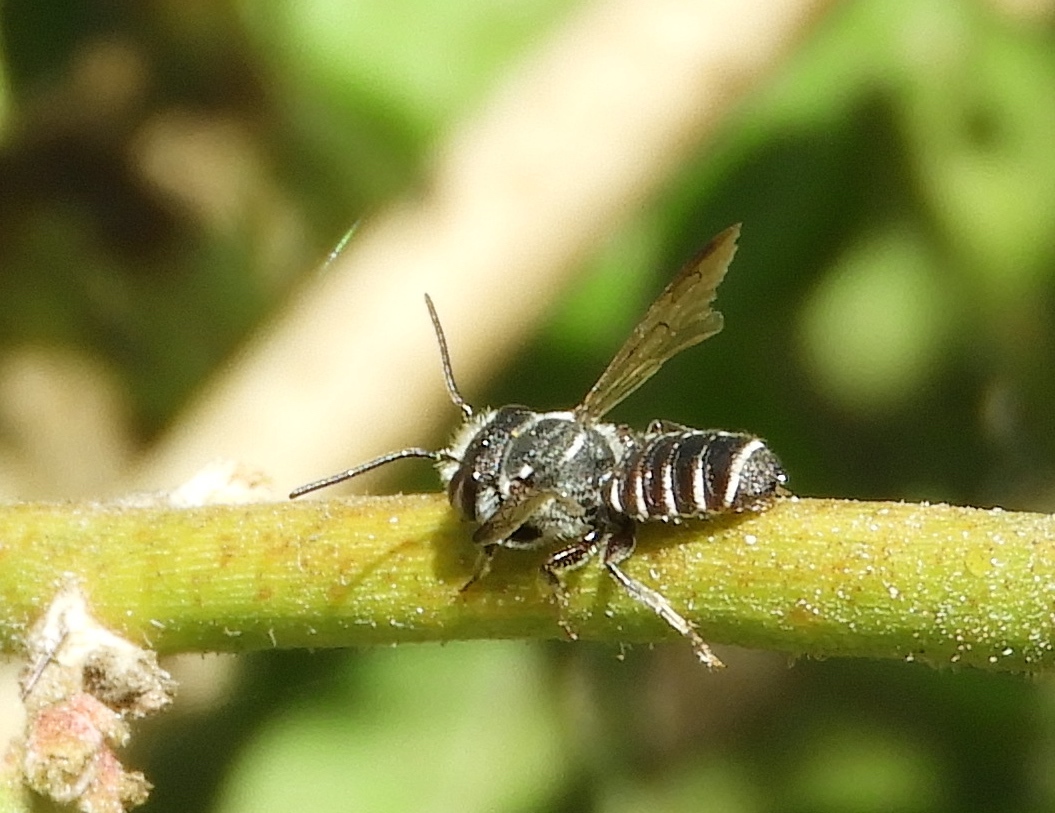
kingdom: Animalia
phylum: Arthropoda
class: Insecta
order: Hymenoptera
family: Megachilidae
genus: Megachile
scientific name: Megachile
